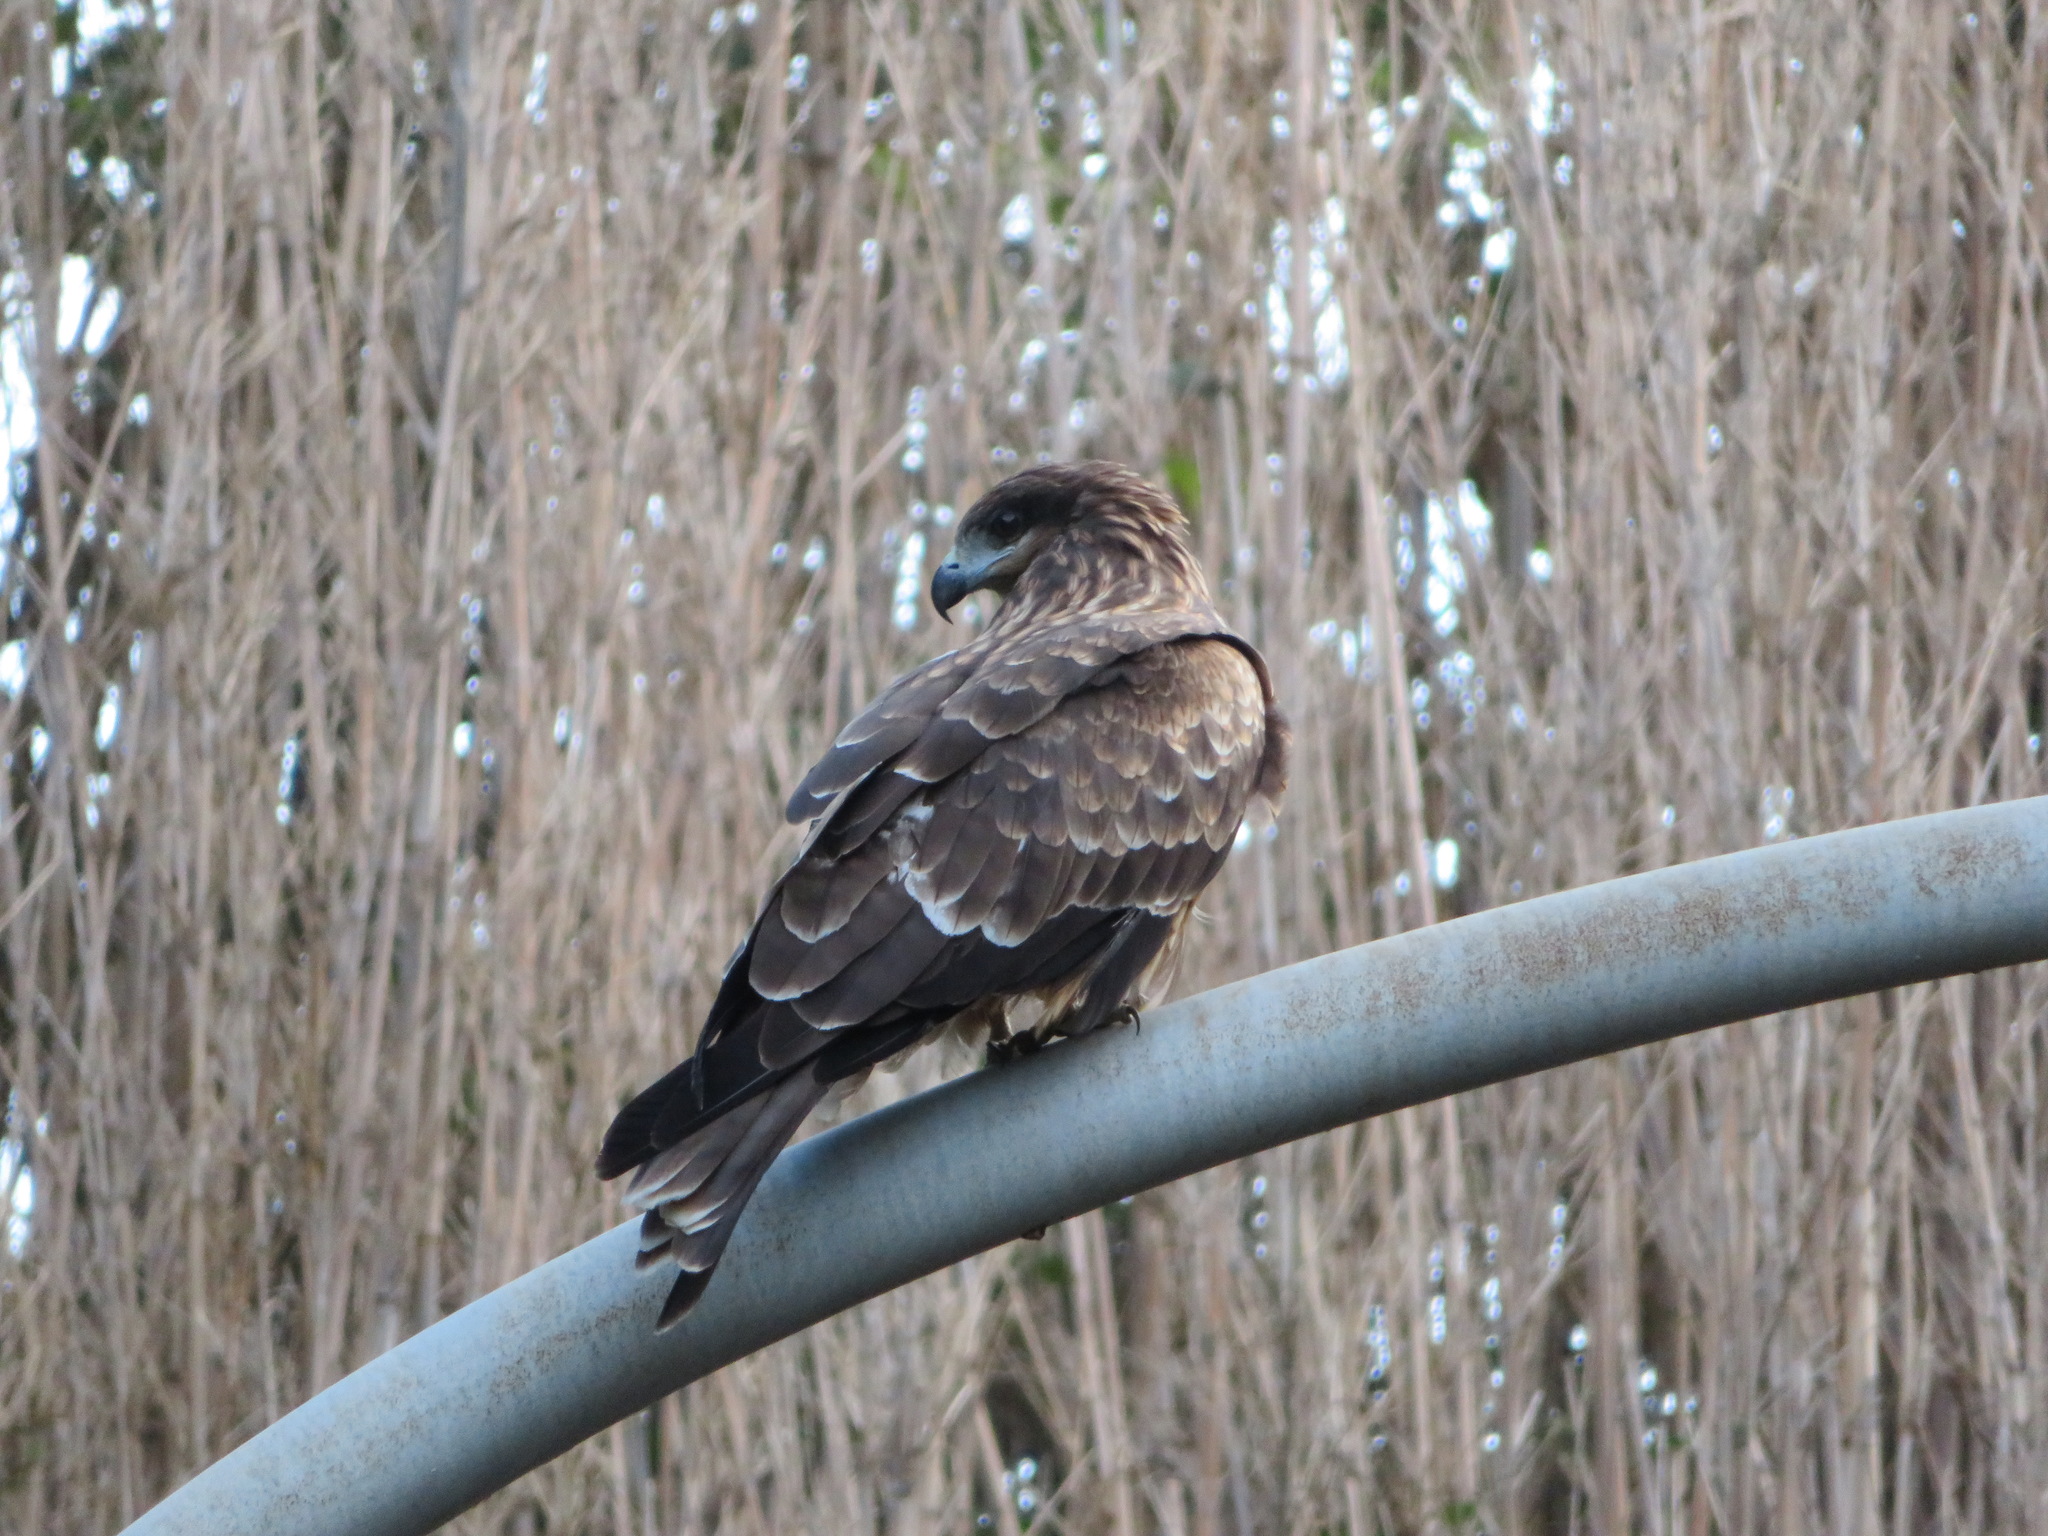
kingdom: Animalia
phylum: Chordata
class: Aves
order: Accipitriformes
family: Accipitridae
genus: Milvus
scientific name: Milvus migrans
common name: Black kite
